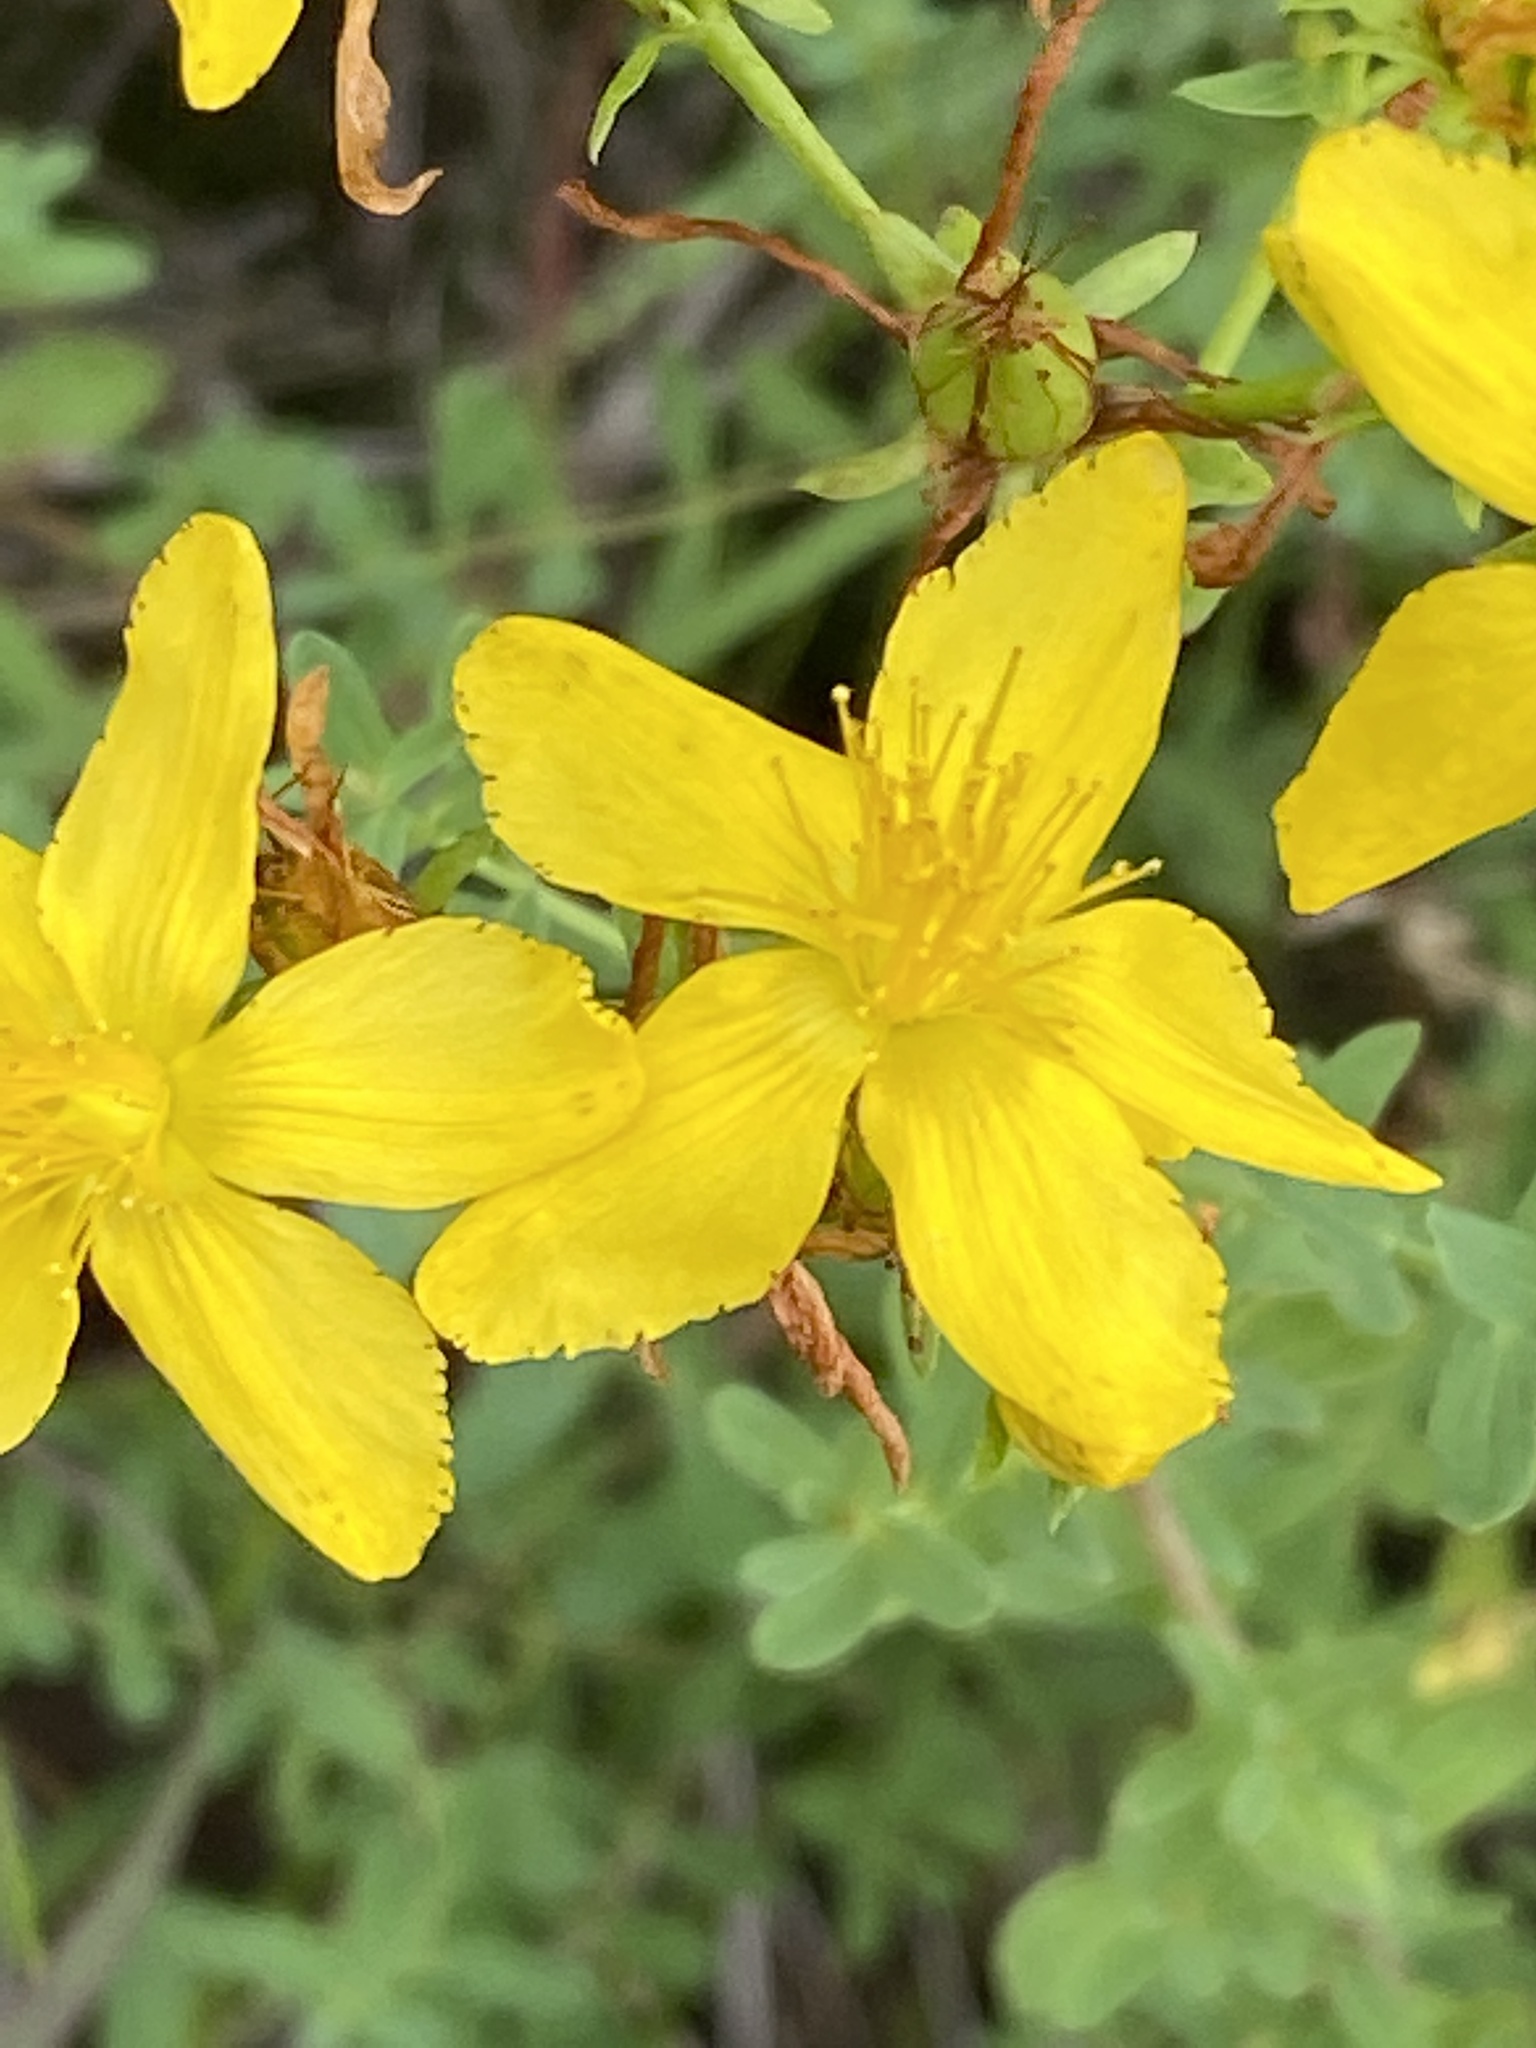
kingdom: Plantae
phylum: Tracheophyta
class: Magnoliopsida
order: Malpighiales
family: Hypericaceae
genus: Hypericum
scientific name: Hypericum perforatum
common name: Common st. johnswort
